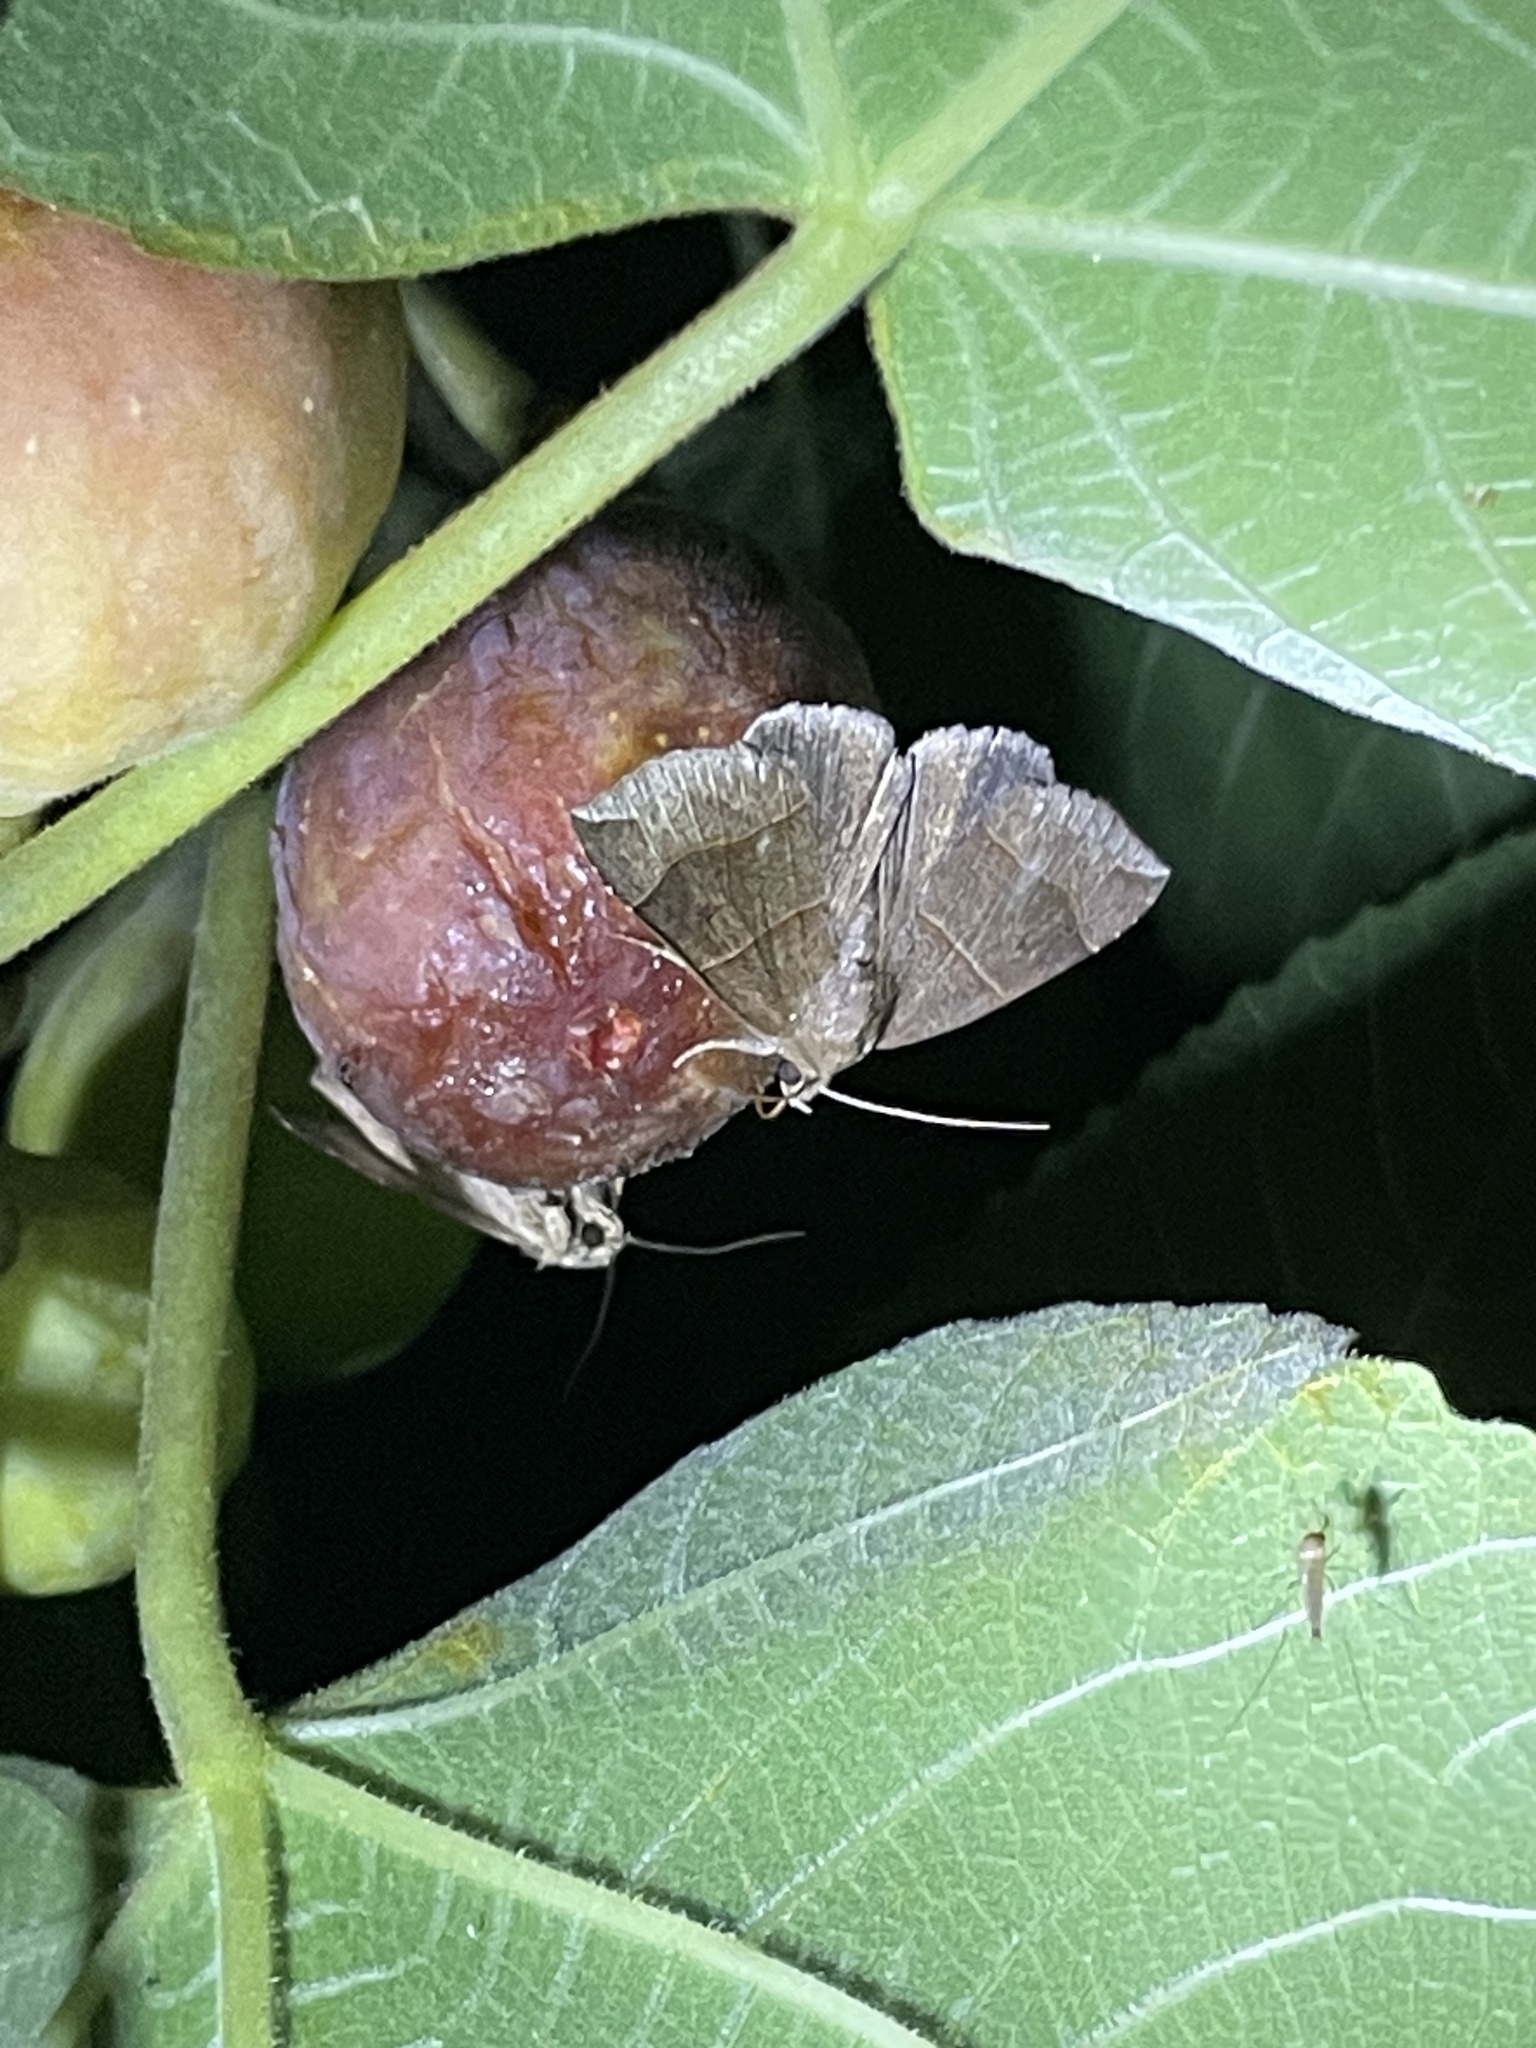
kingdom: Animalia
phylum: Arthropoda
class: Insecta
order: Lepidoptera
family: Erebidae
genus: Parallelia
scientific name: Parallelia bistriaris
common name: Maple looper moth
